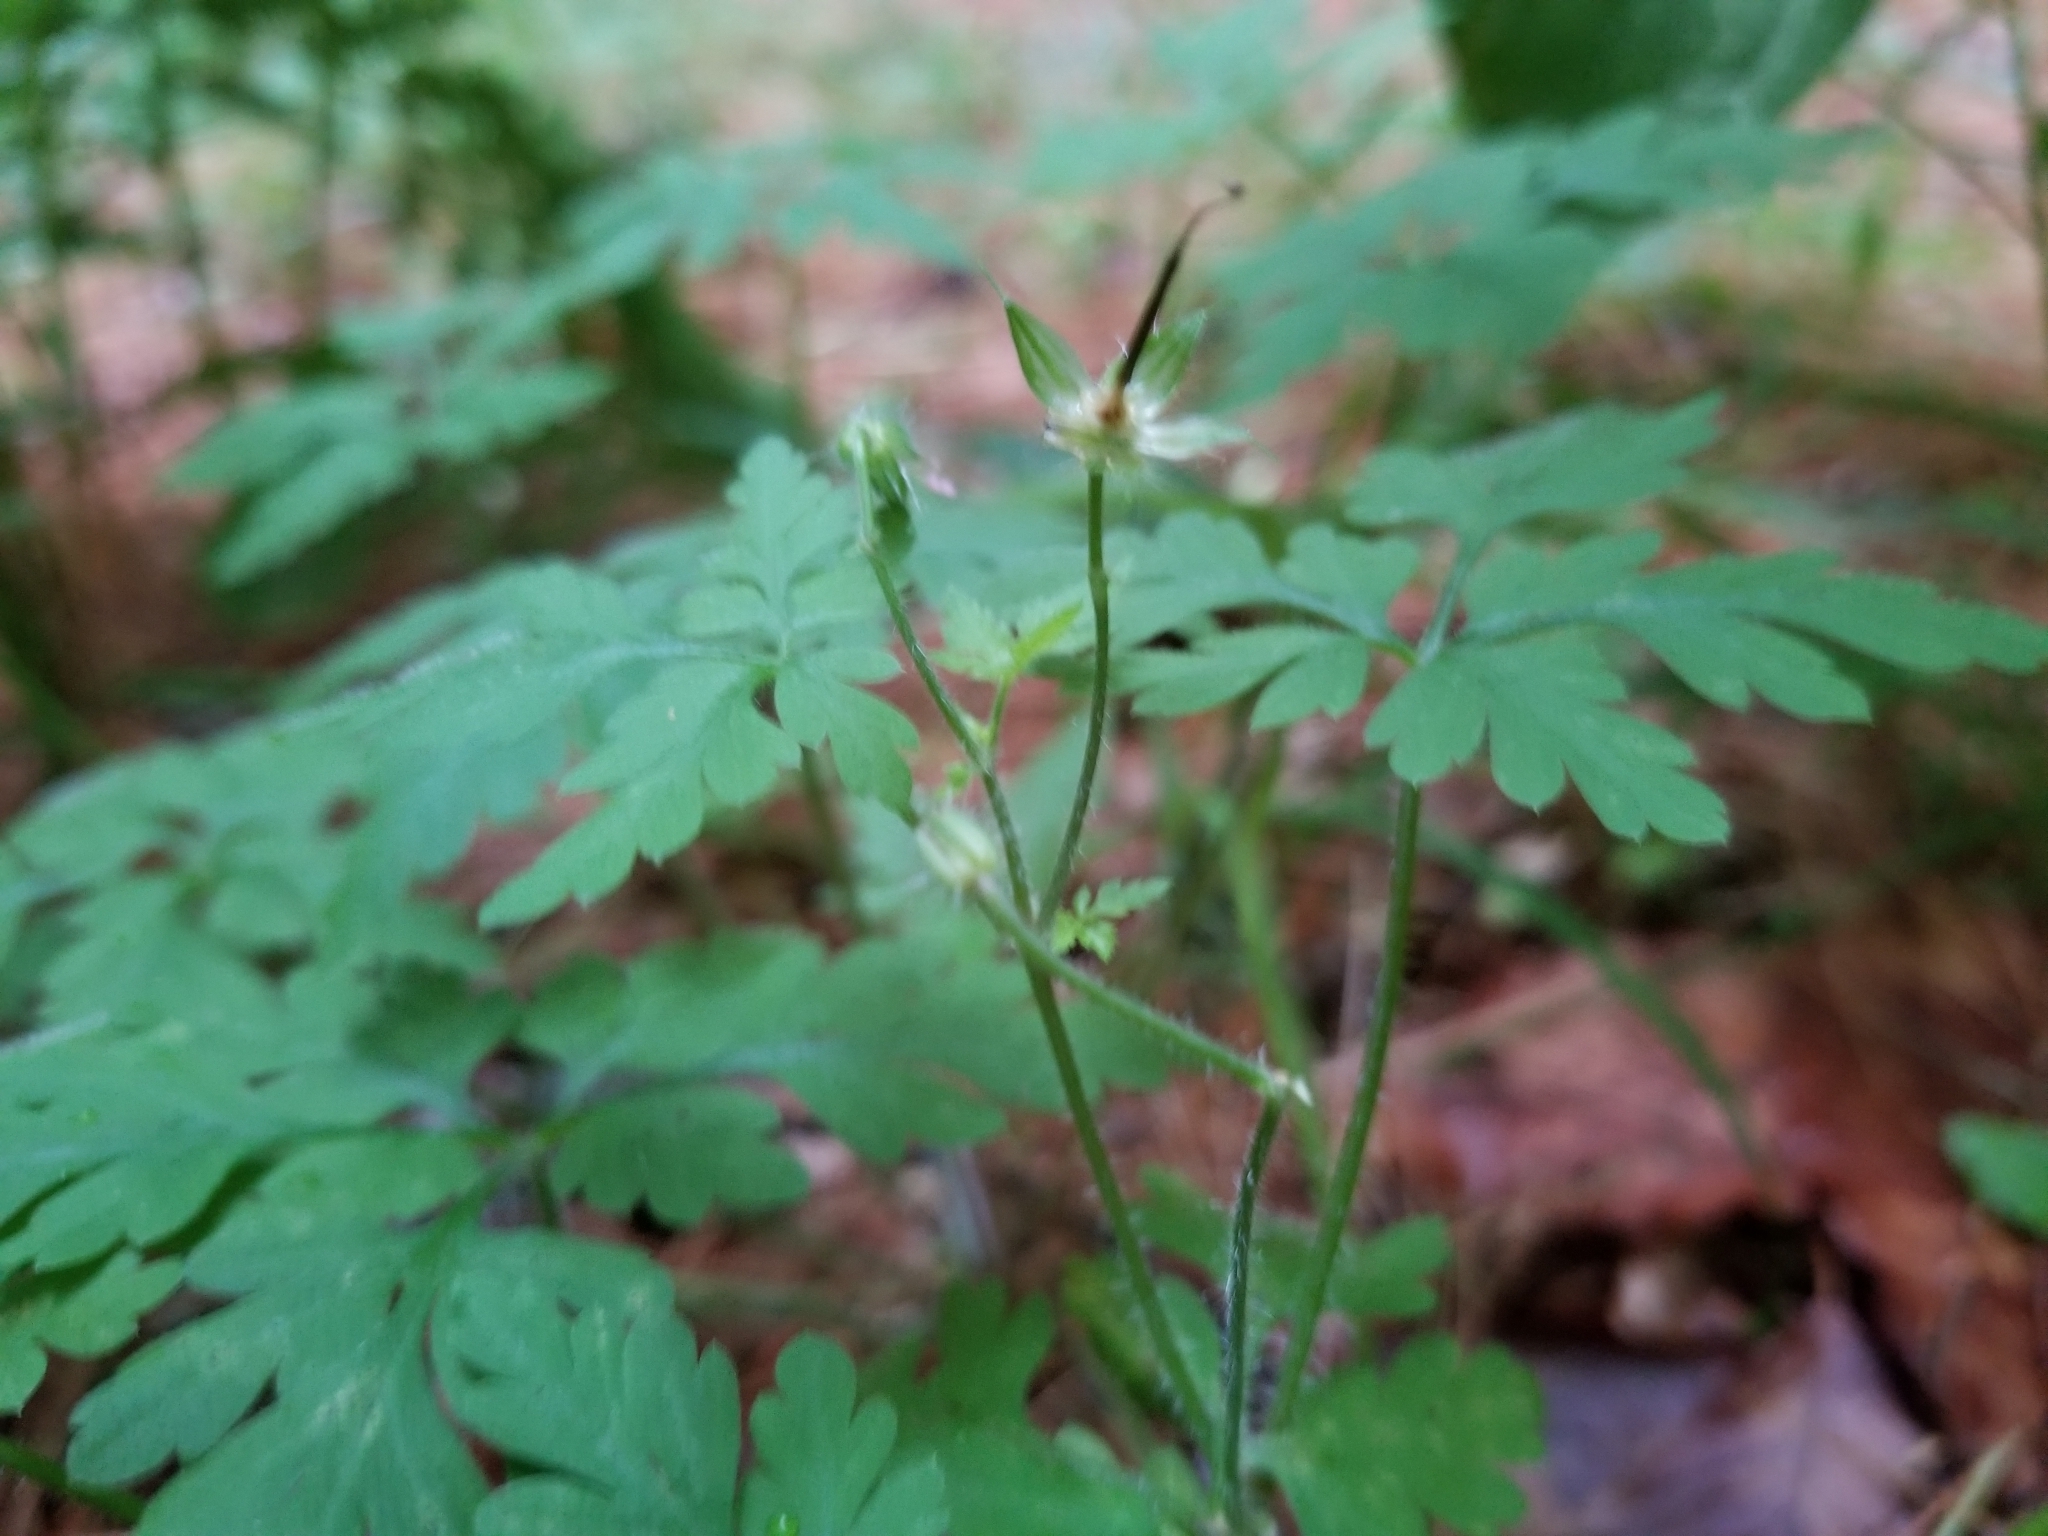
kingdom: Plantae
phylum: Tracheophyta
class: Magnoliopsida
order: Geraniales
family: Geraniaceae
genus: Geranium
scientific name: Geranium robertianum
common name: Herb-robert
